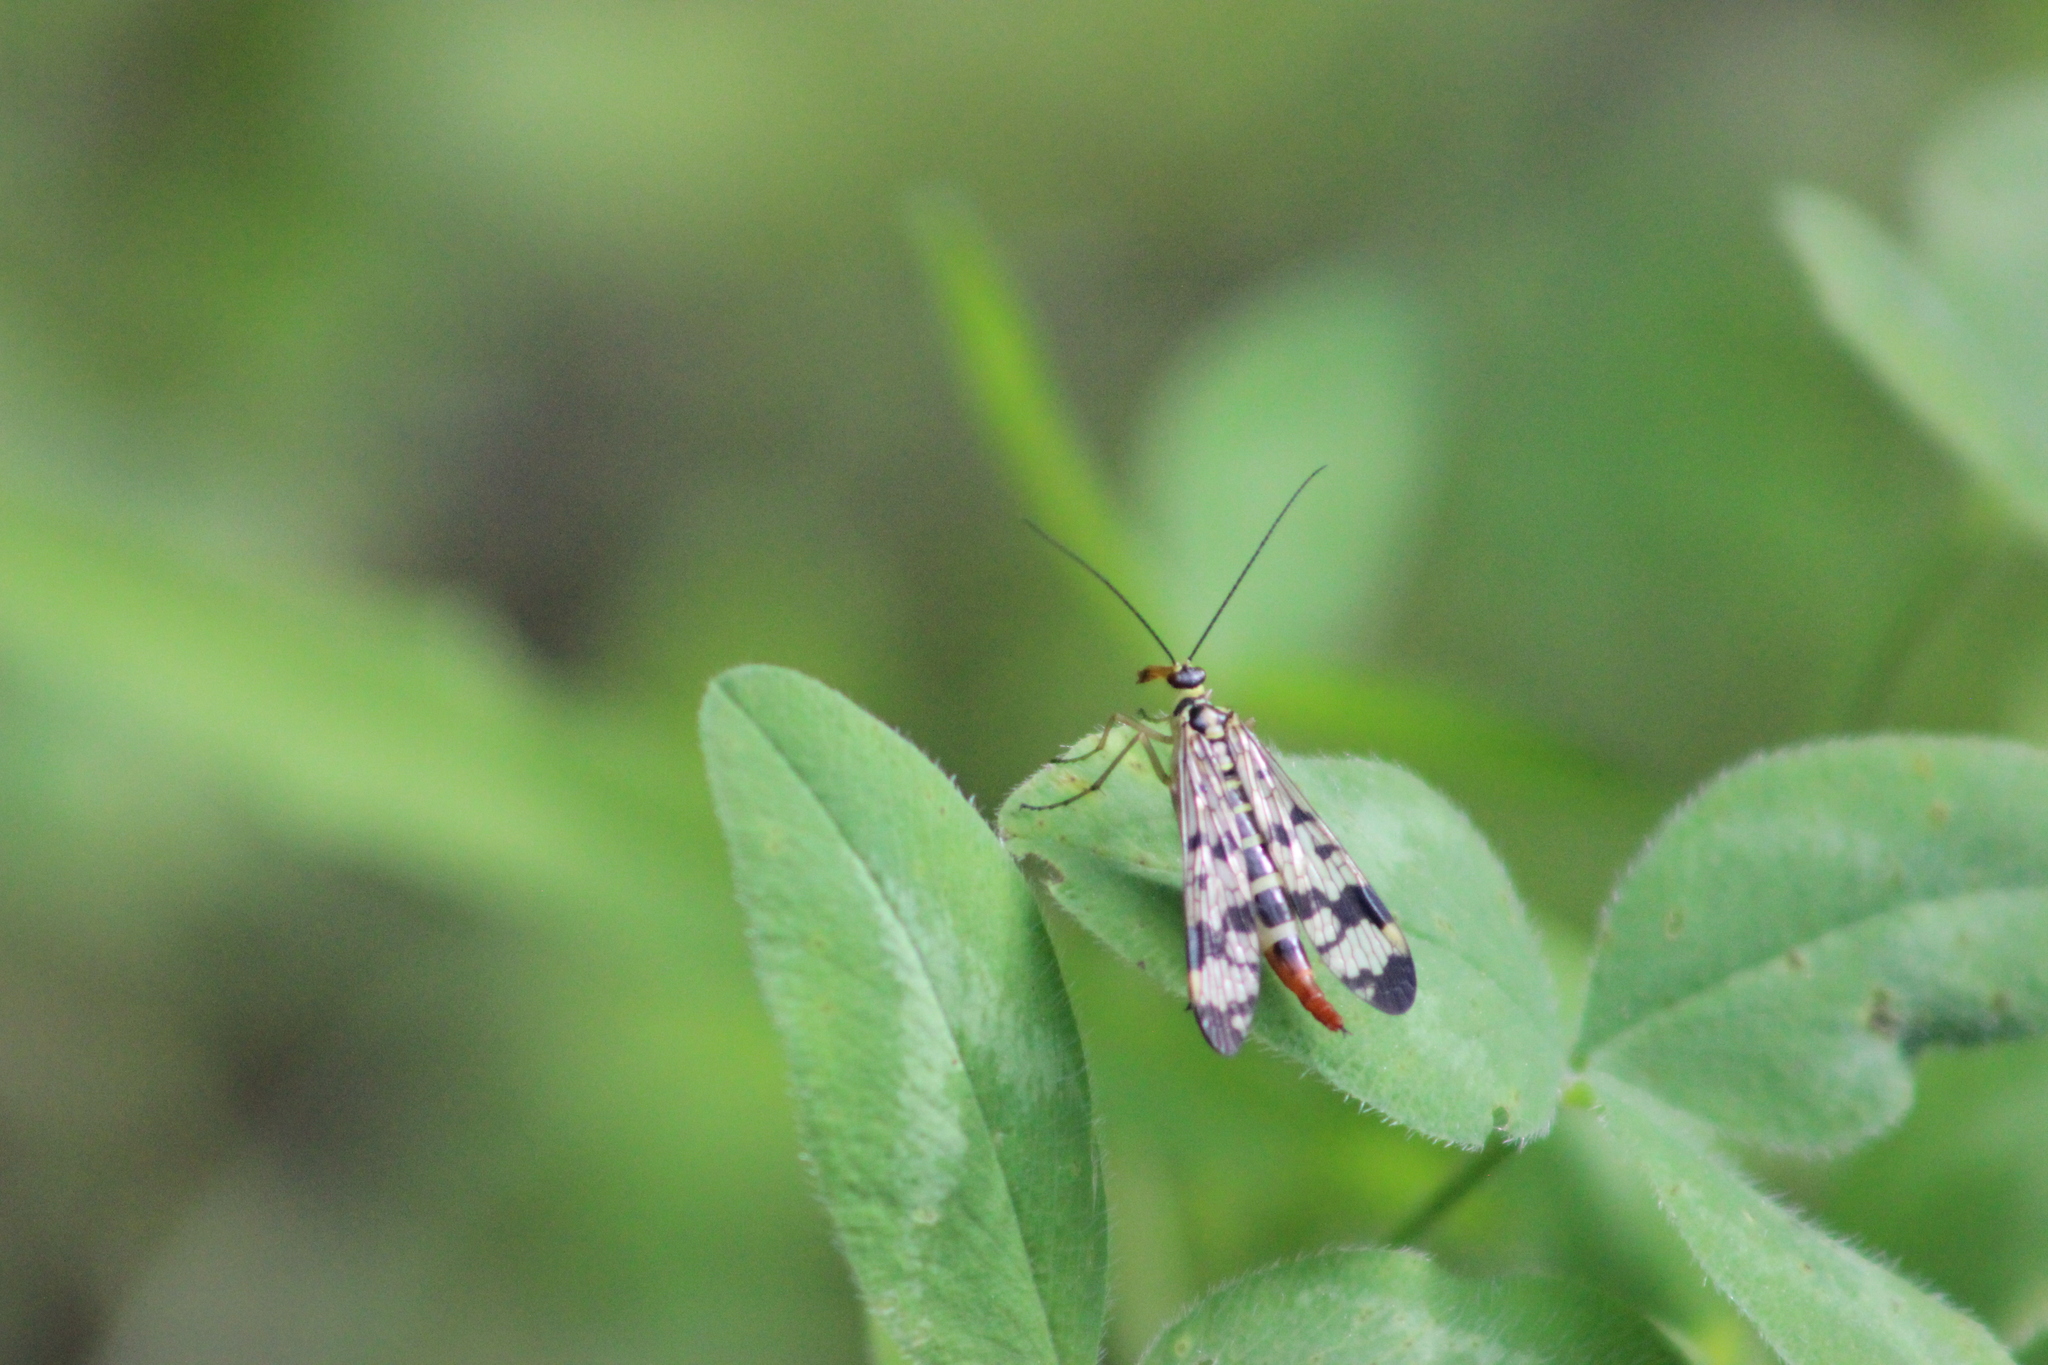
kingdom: Animalia
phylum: Arthropoda
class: Insecta
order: Mecoptera
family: Panorpidae
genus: Panorpa
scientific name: Panorpa communis
